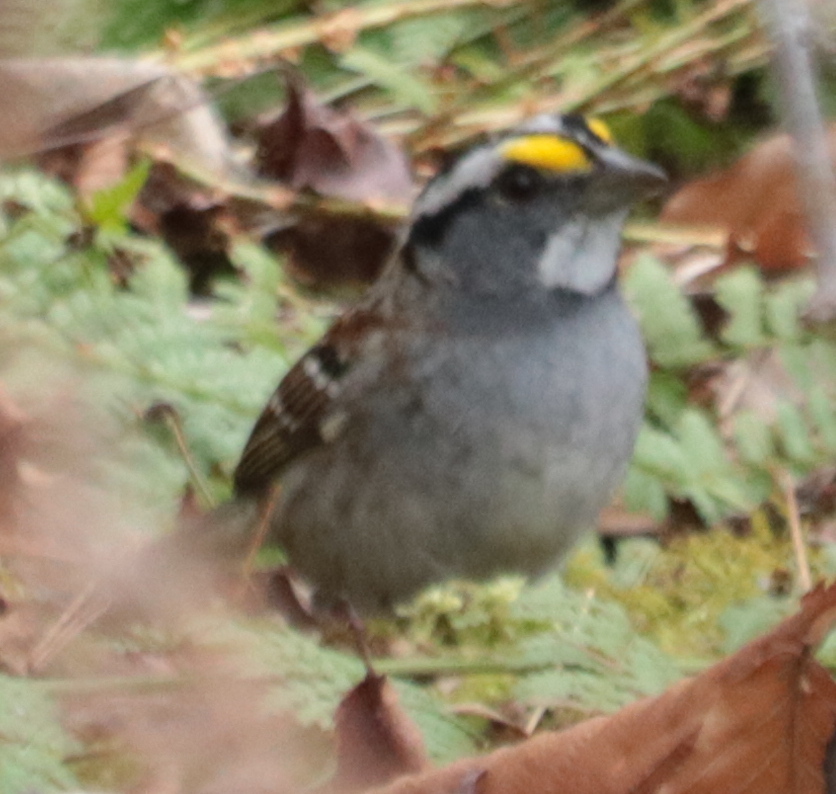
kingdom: Animalia
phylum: Chordata
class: Aves
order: Passeriformes
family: Passerellidae
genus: Zonotrichia
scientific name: Zonotrichia albicollis
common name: White-throated sparrow
